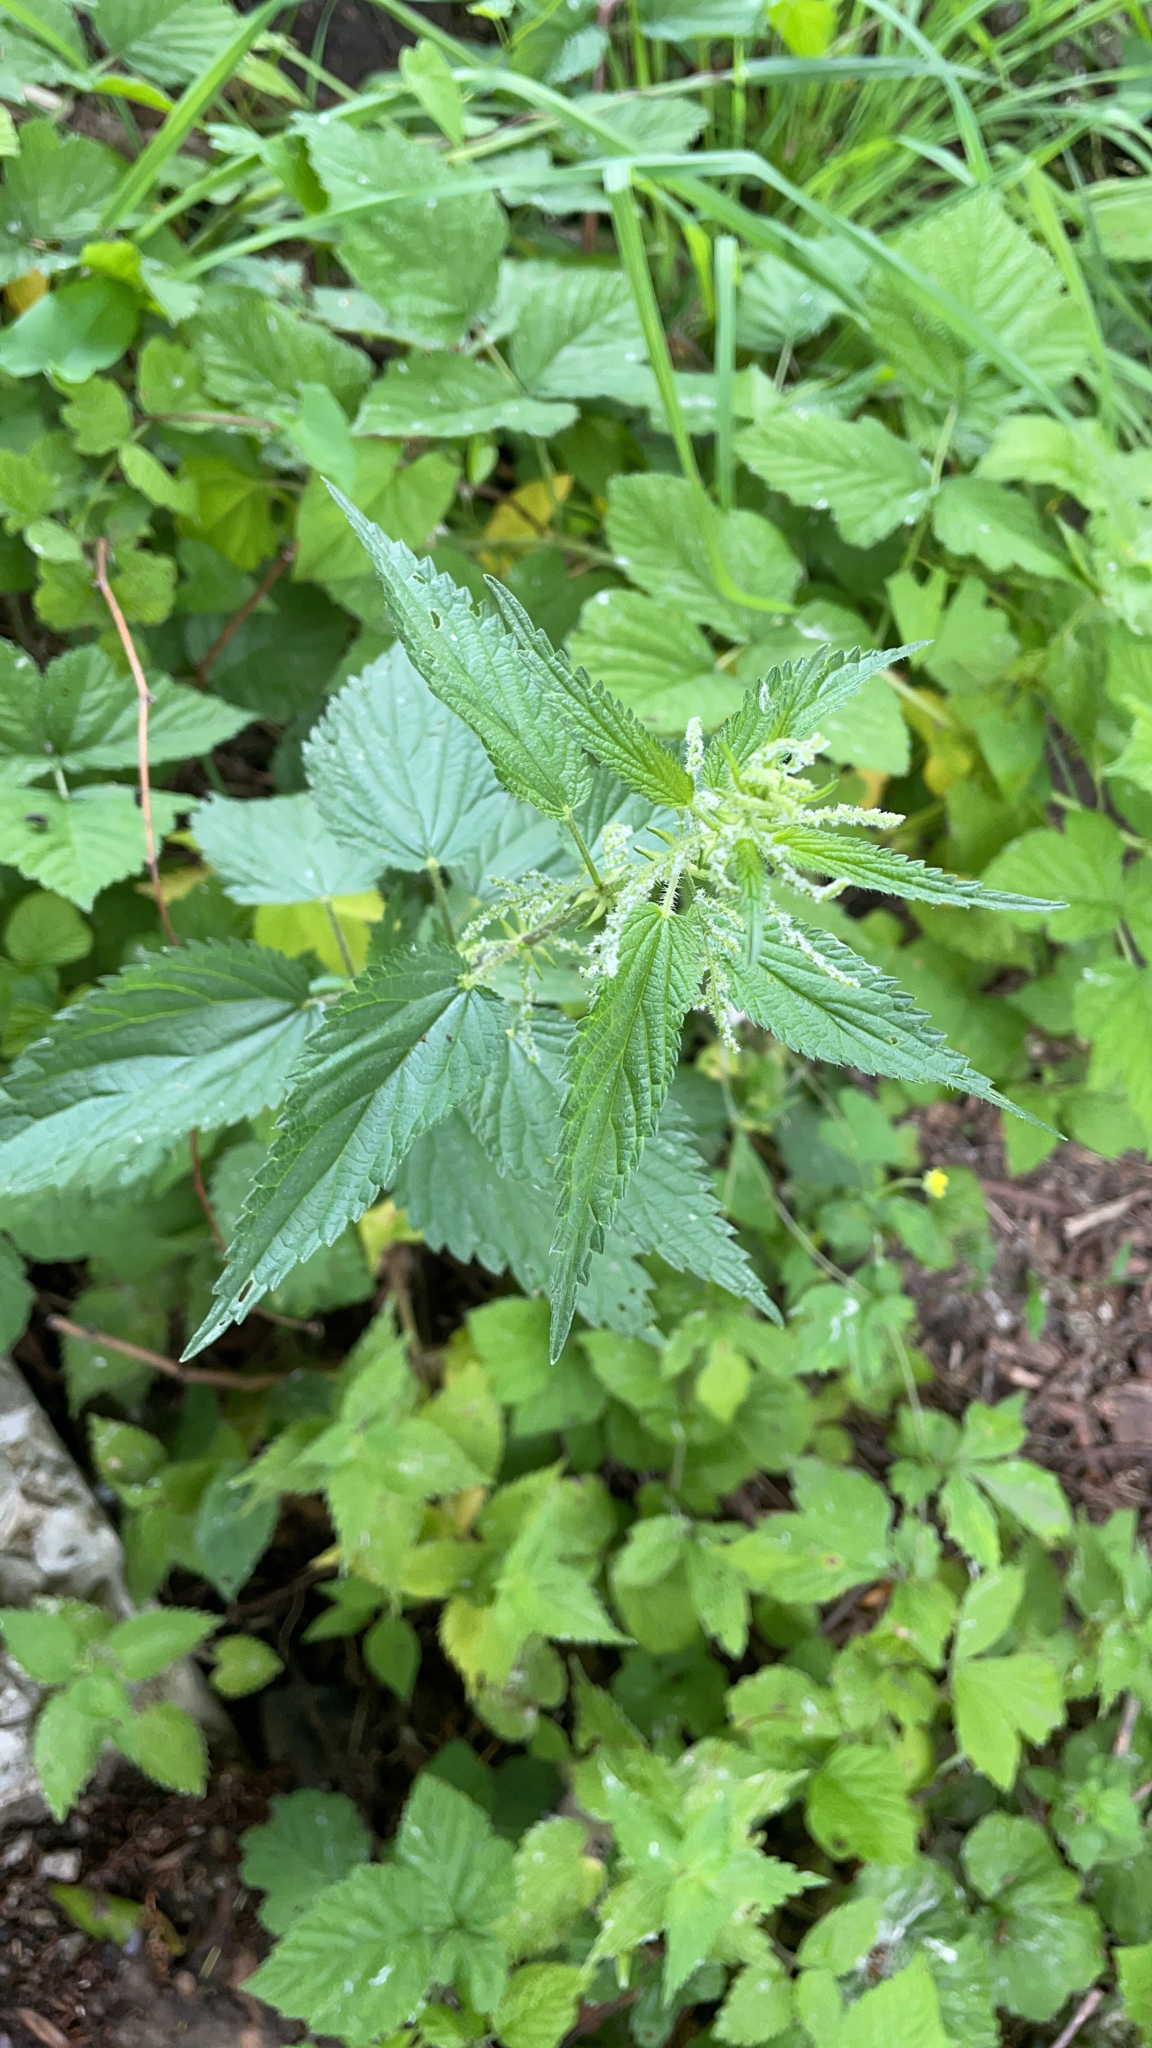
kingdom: Plantae
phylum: Tracheophyta
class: Magnoliopsida
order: Rosales
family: Urticaceae
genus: Urtica
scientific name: Urtica dioica
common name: Common nettle
